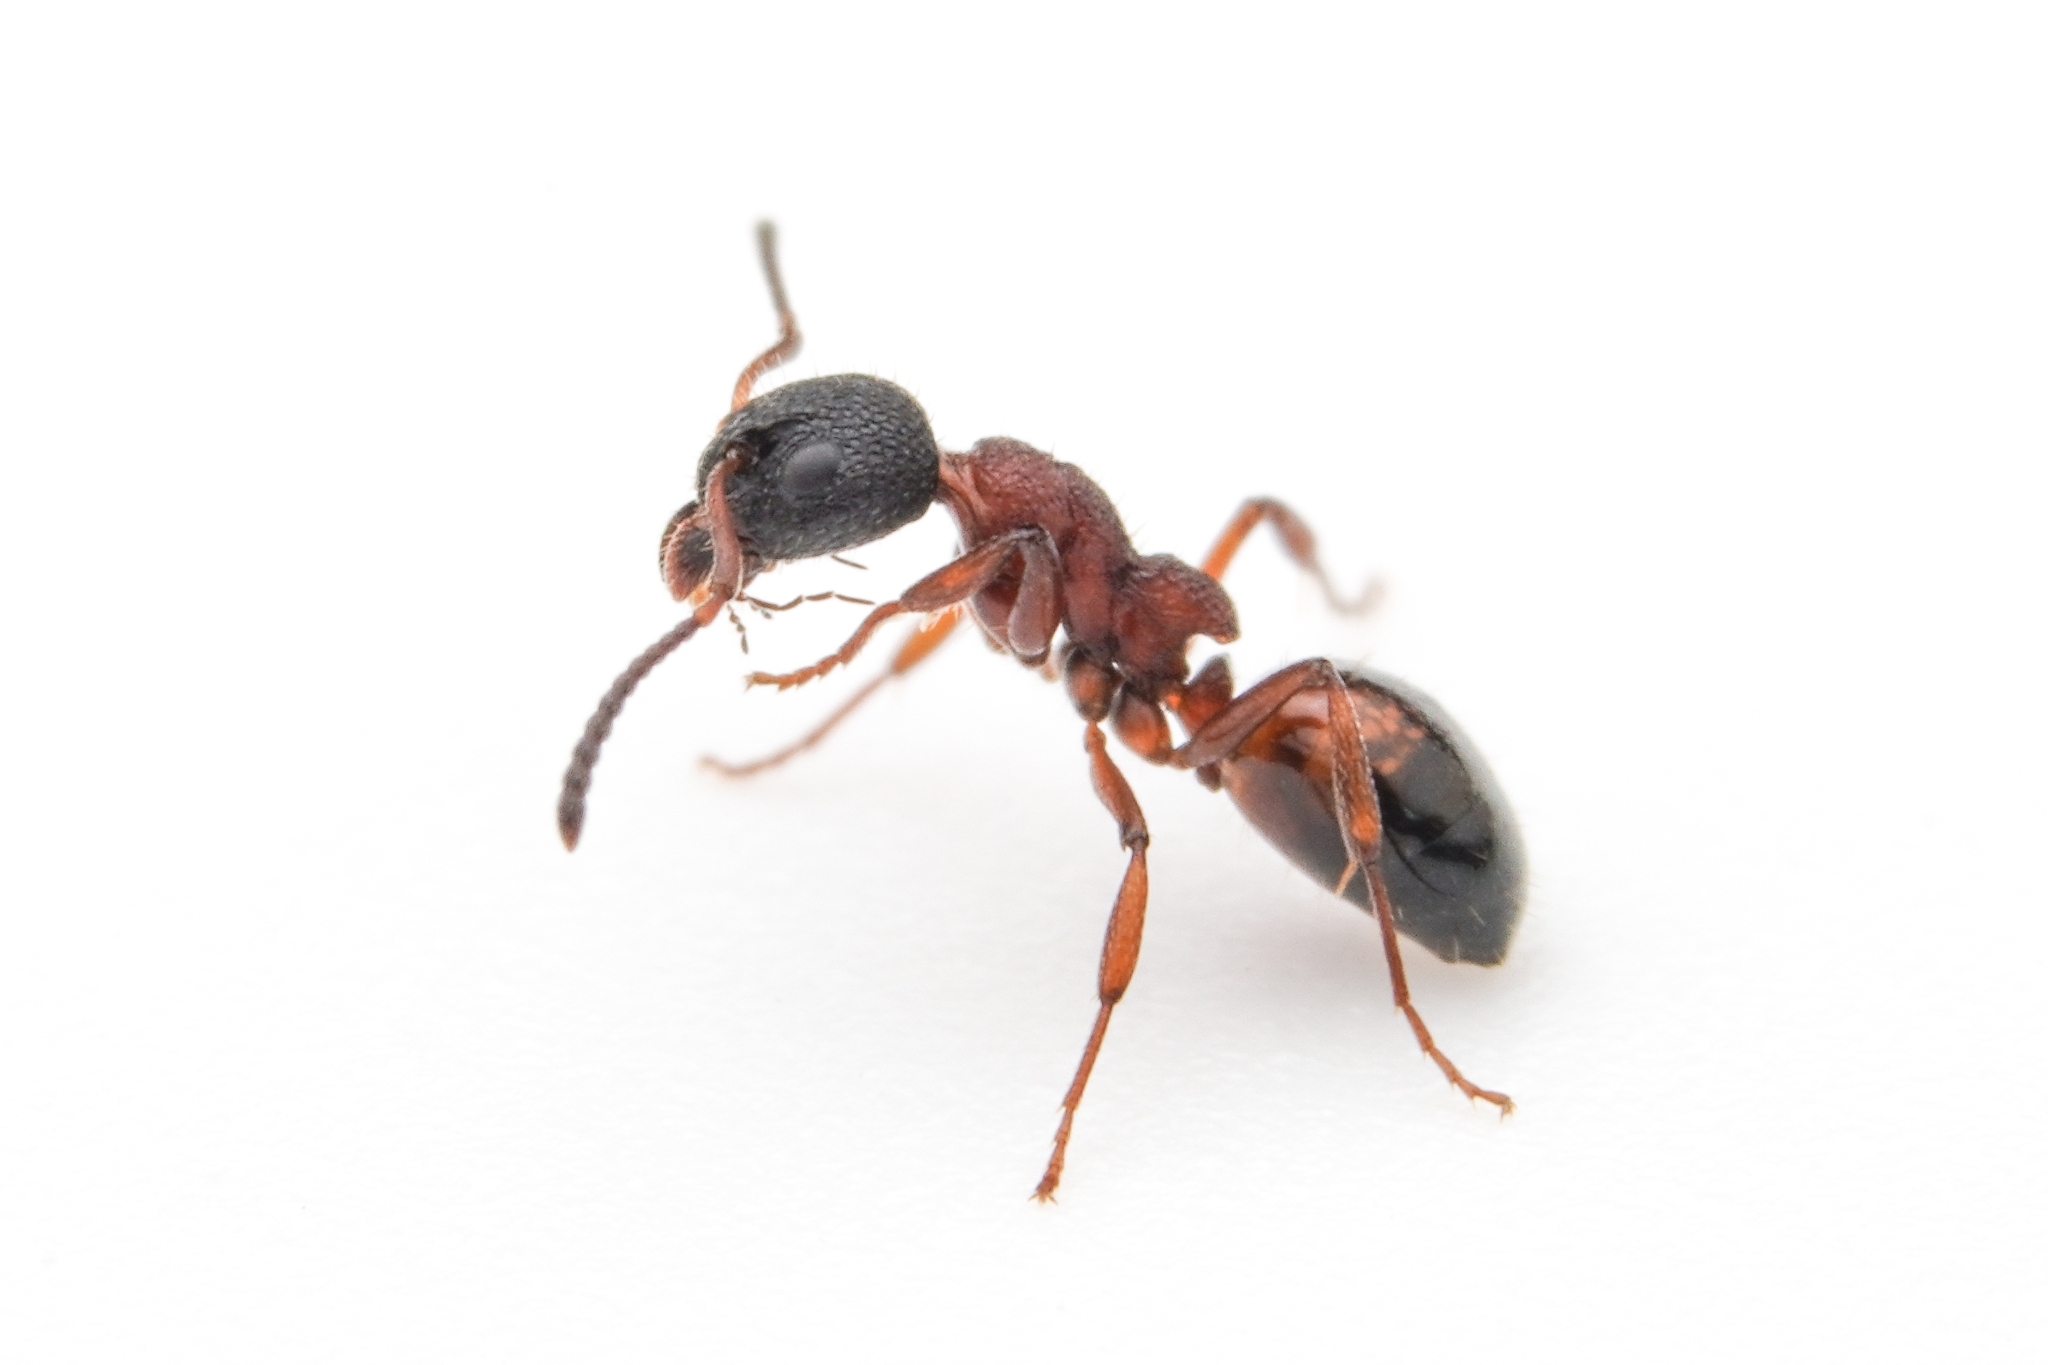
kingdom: Animalia
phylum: Arthropoda
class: Insecta
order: Hymenoptera
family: Formicidae
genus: Dolichoderus
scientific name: Dolichoderus plagiatus
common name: Mottled dolichoderus
